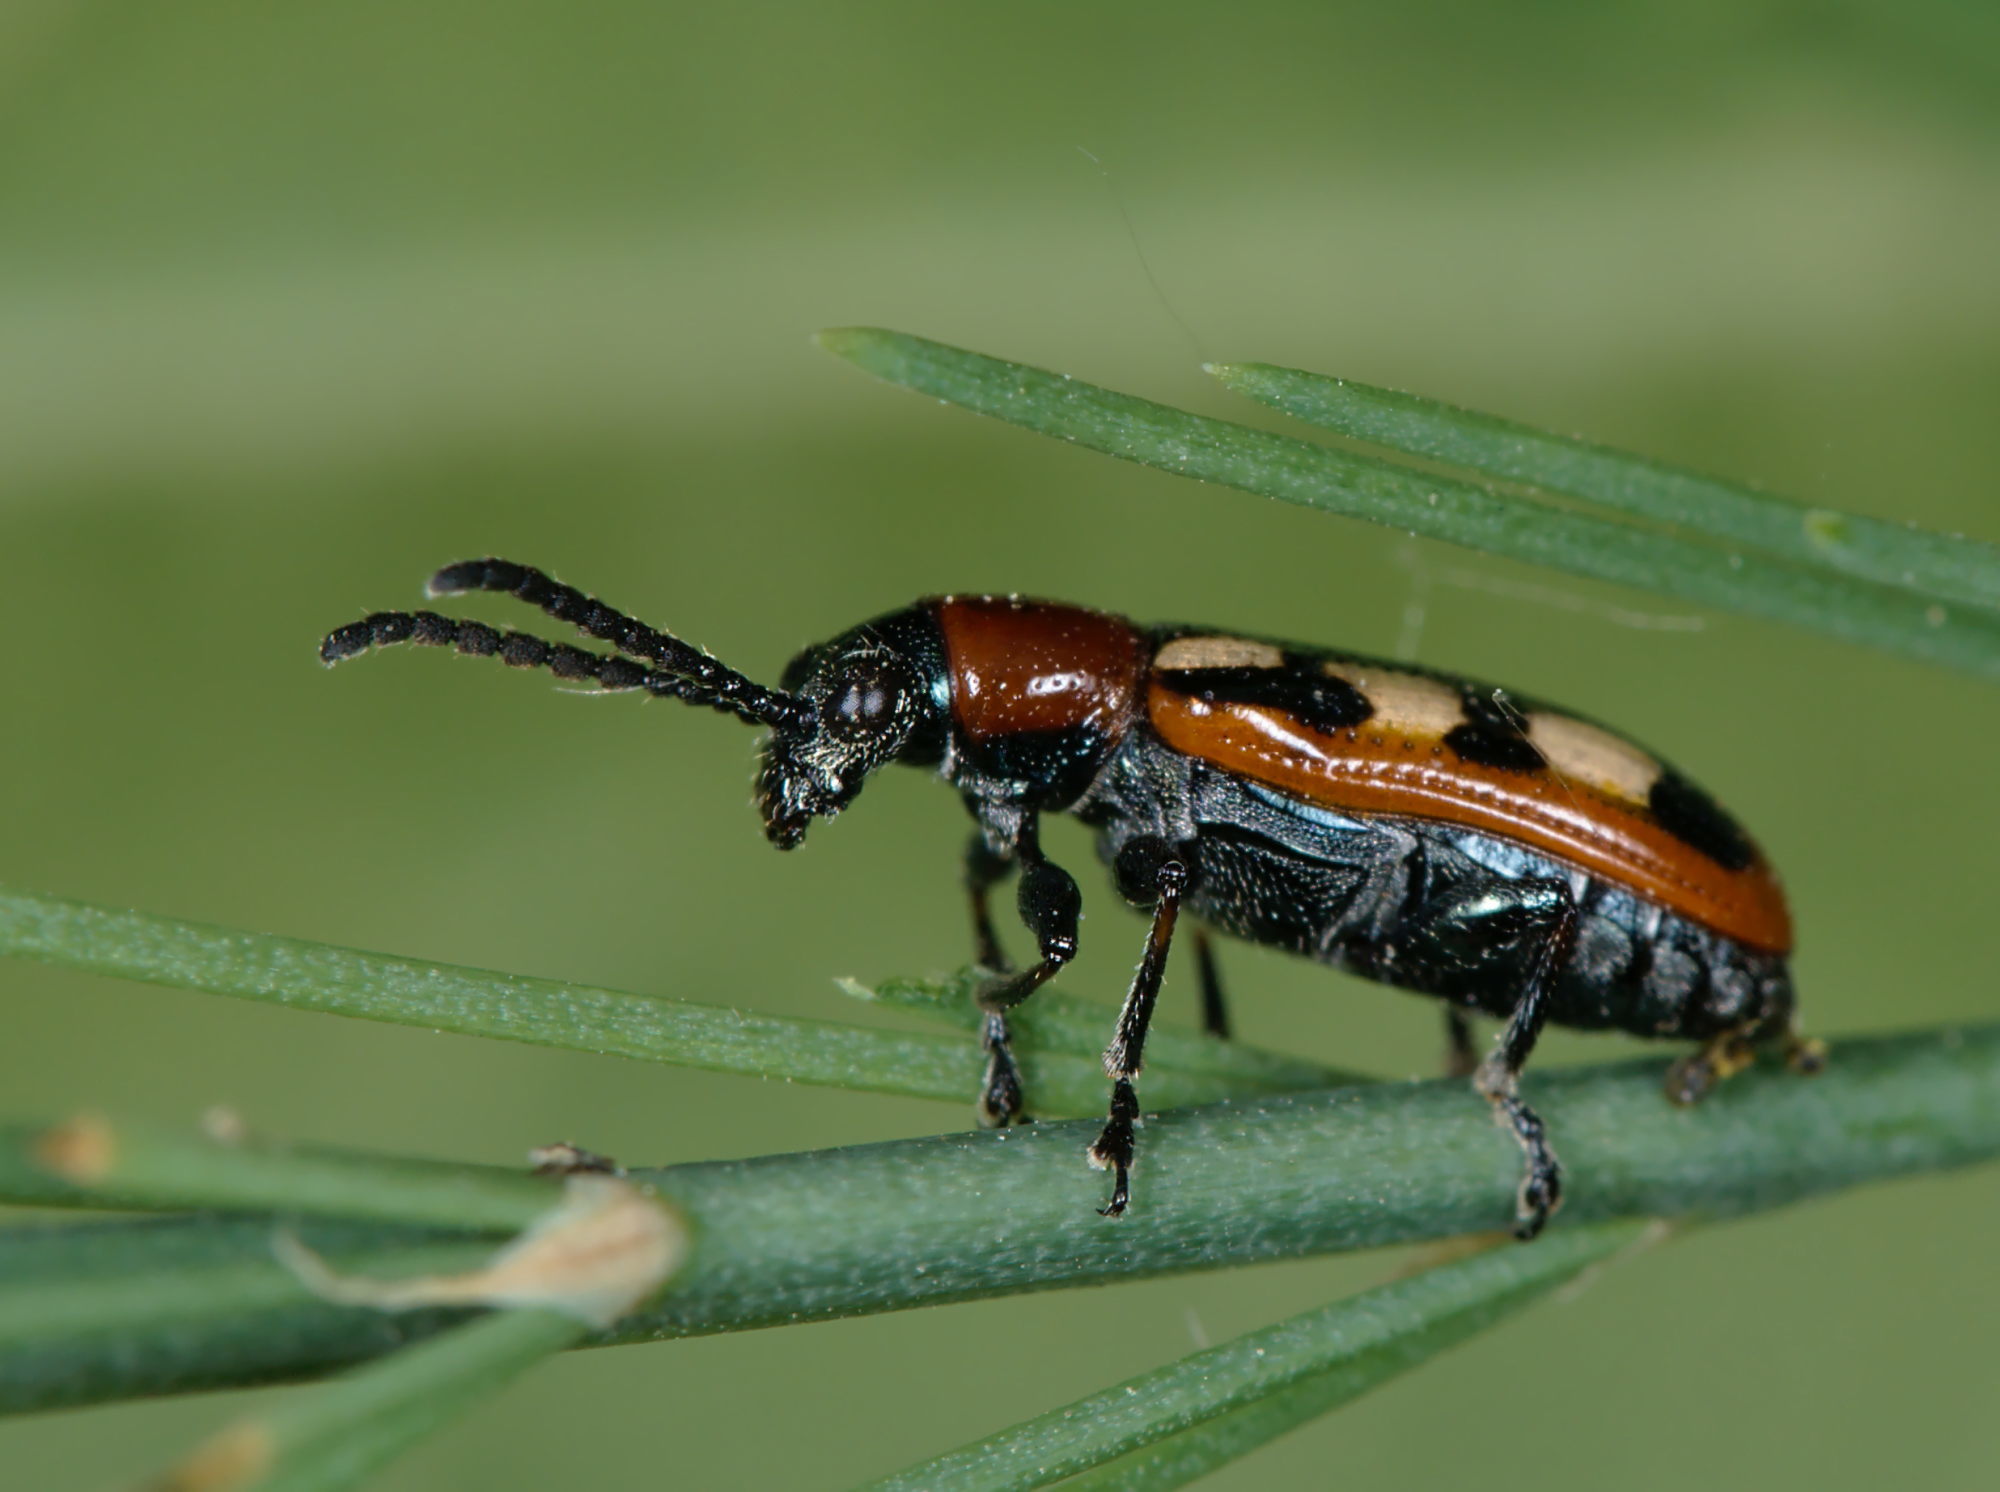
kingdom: Animalia
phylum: Arthropoda
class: Insecta
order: Coleoptera
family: Chrysomelidae
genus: Crioceris
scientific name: Crioceris asparagi
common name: Asparagus beetle
